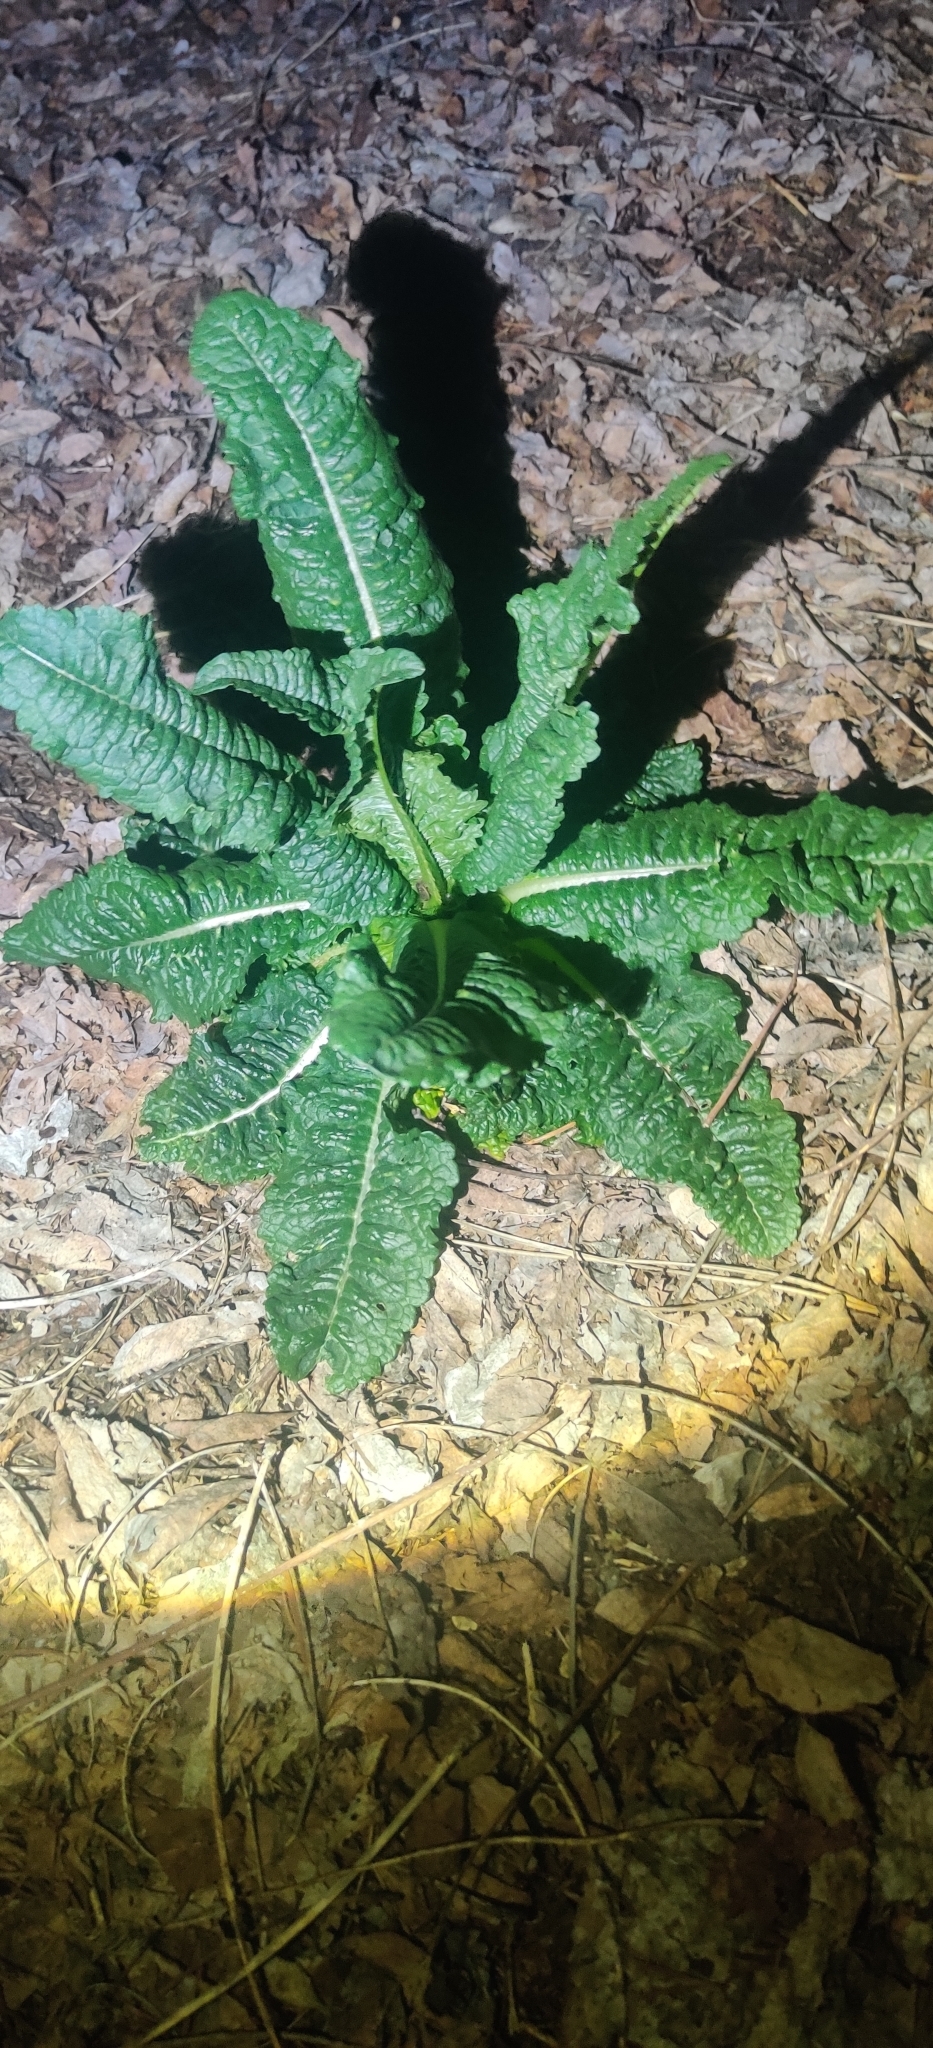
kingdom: Plantae
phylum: Tracheophyta
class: Magnoliopsida
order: Dipsacales
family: Caprifoliaceae
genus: Dipsacus
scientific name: Dipsacus fullonum
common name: Teasel
